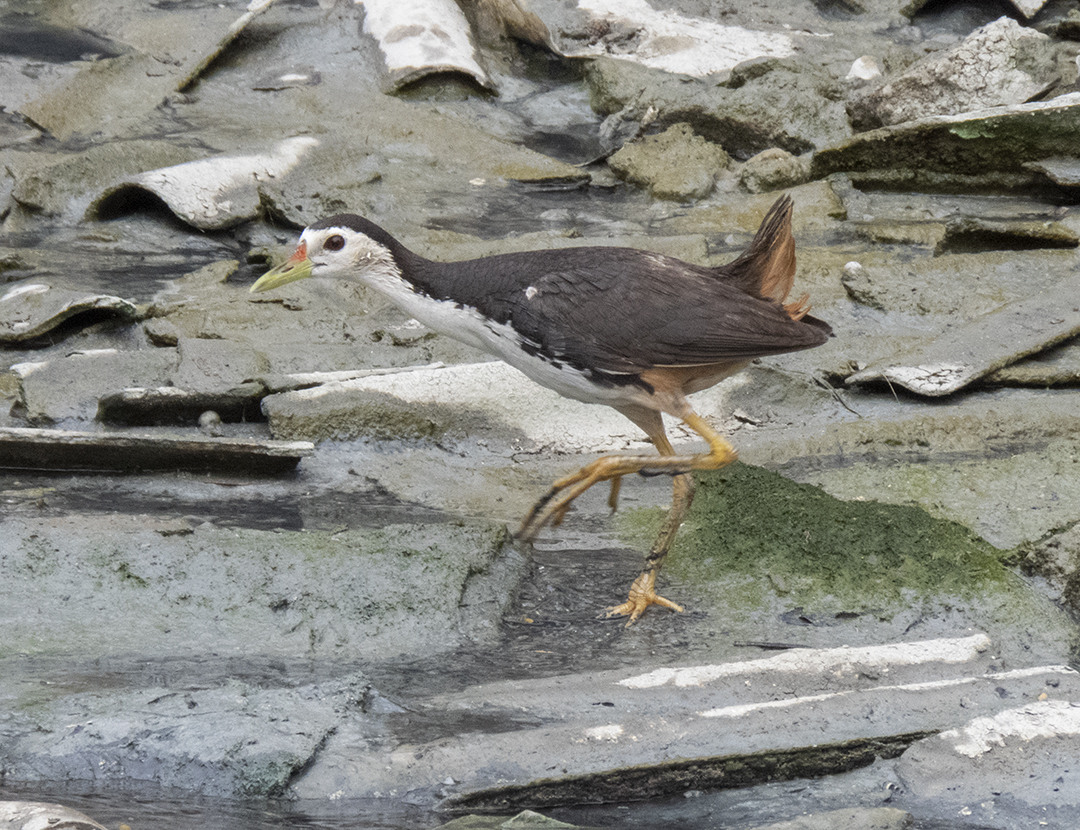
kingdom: Animalia
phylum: Chordata
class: Aves
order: Gruiformes
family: Rallidae
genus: Amaurornis
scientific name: Amaurornis phoenicurus
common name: White-breasted waterhen
